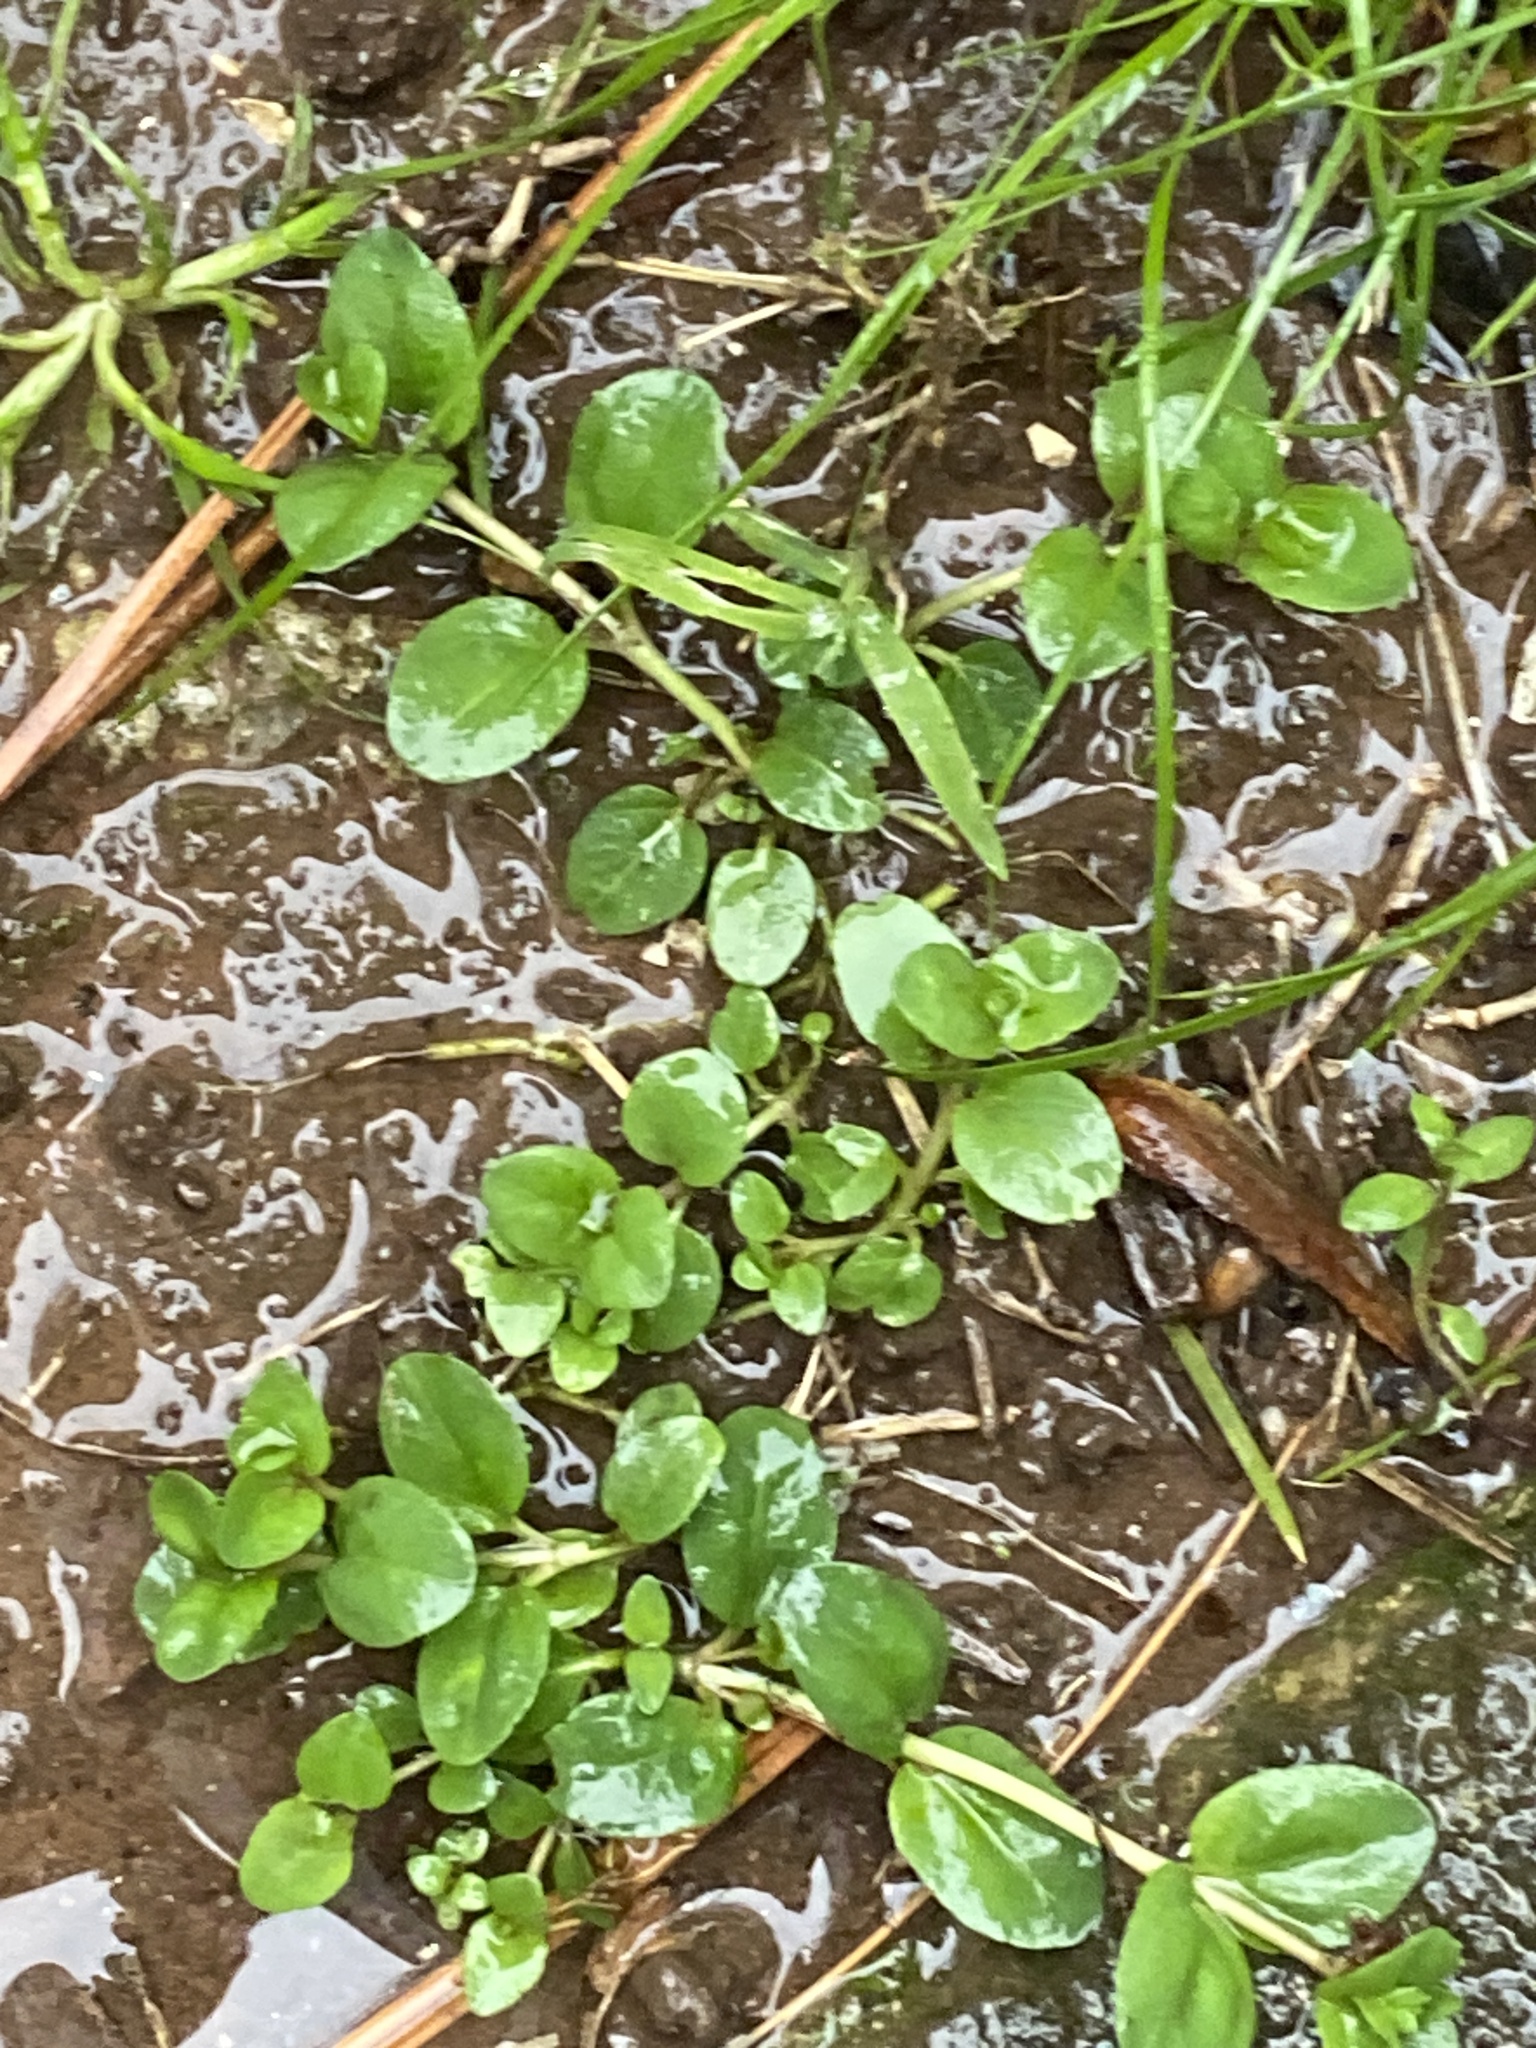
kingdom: Plantae
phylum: Tracheophyta
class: Magnoliopsida
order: Lamiales
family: Plantaginaceae
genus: Veronica
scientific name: Veronica serpyllifolia
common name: Thyme-leaved speedwell
